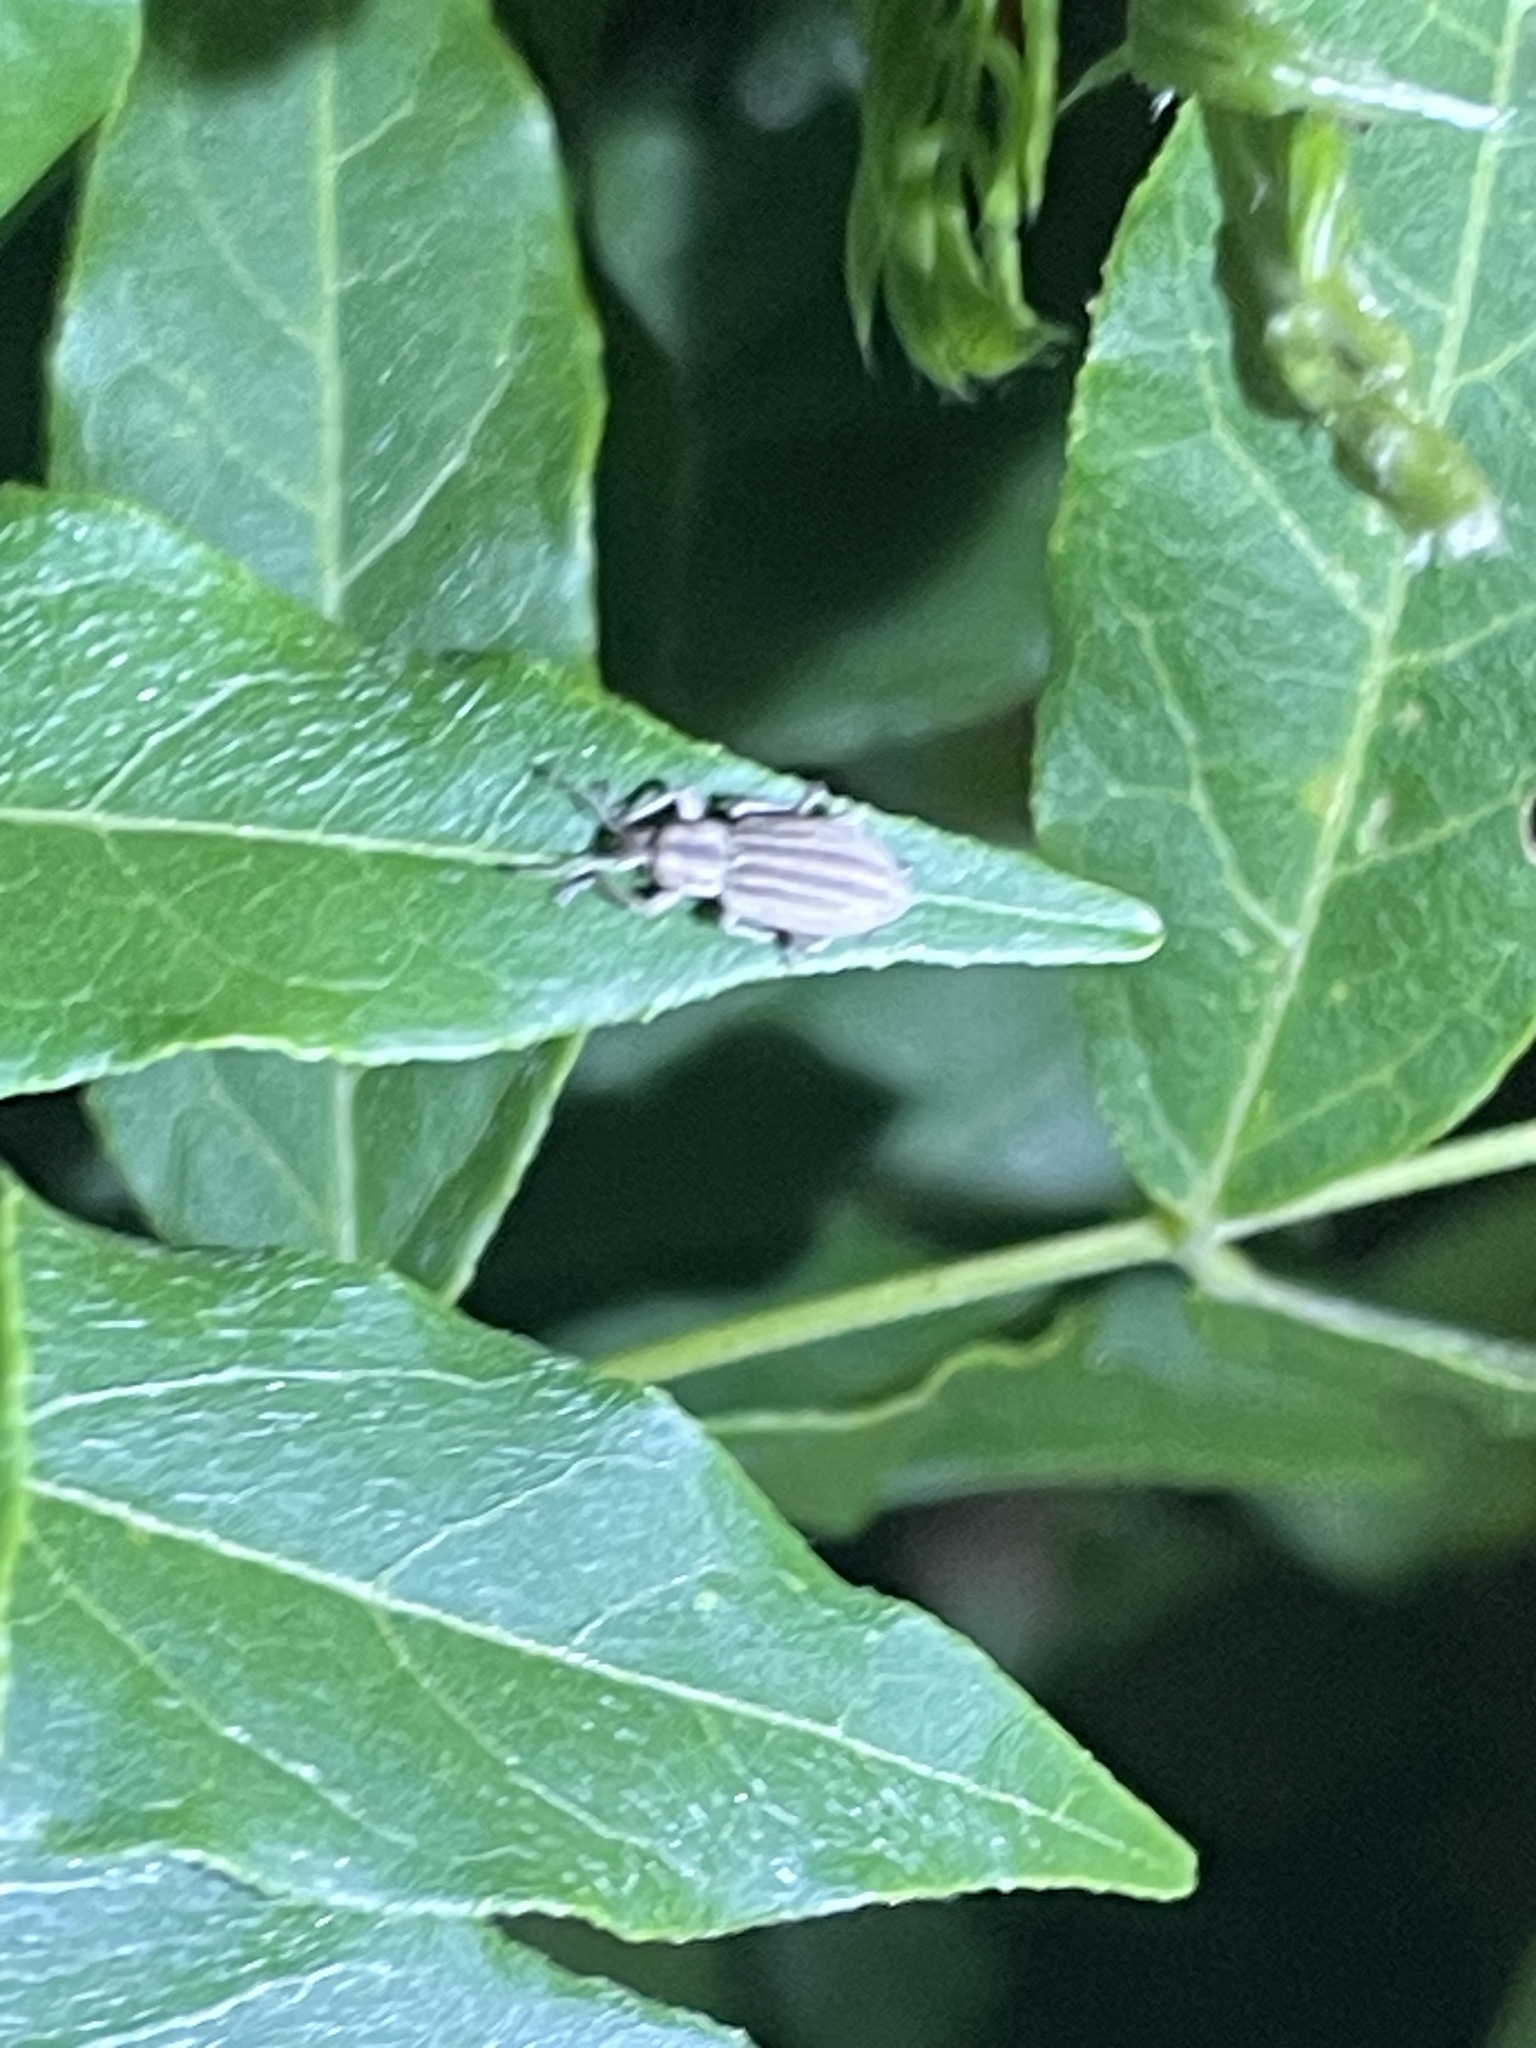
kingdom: Animalia
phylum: Arthropoda
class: Insecta
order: Coleoptera
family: Curculionidae
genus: Aphrastus
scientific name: Aphrastus taeniatus
